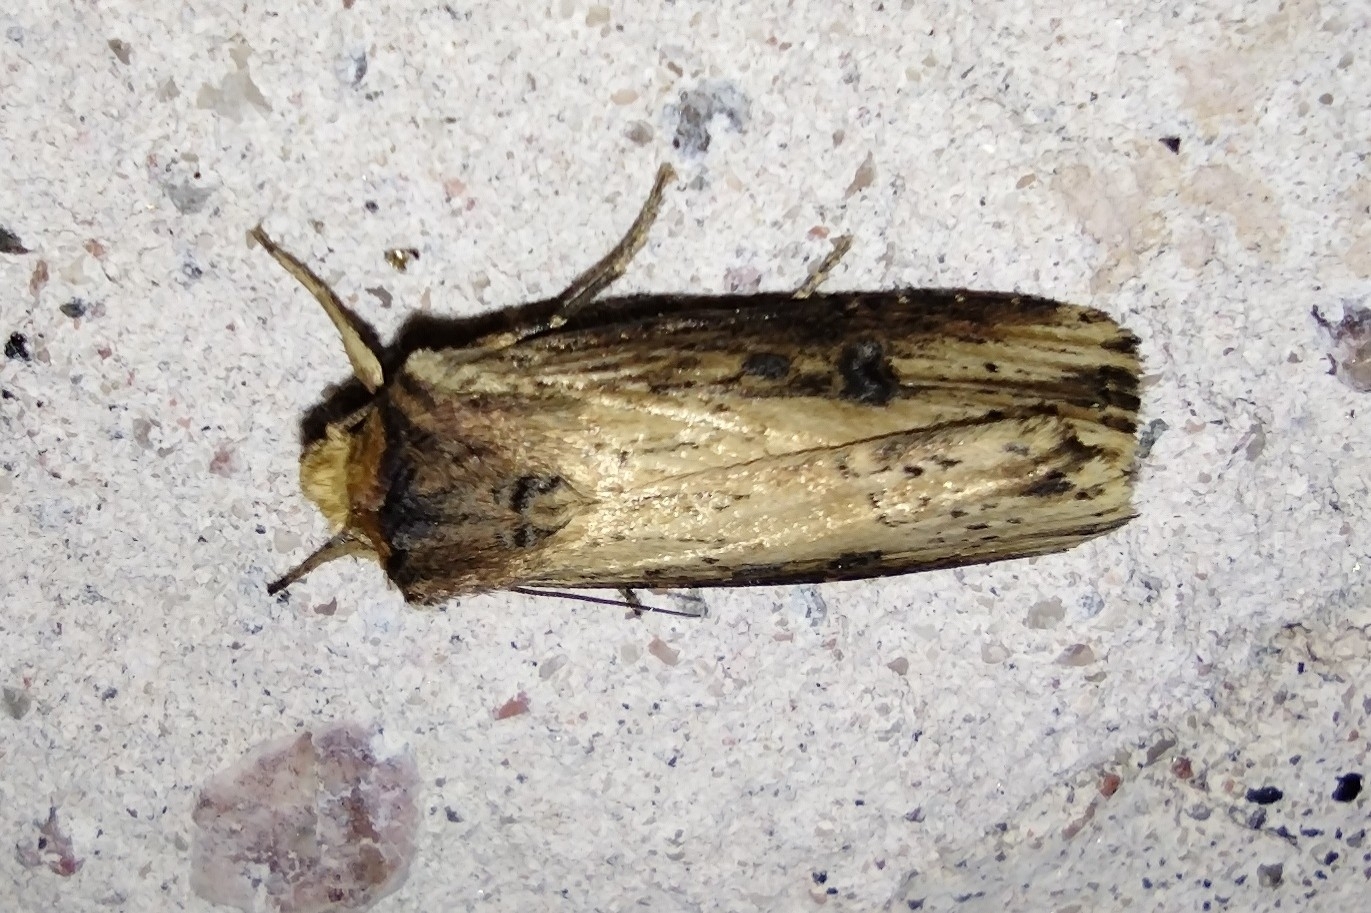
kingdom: Animalia
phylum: Arthropoda
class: Insecta
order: Lepidoptera
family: Noctuidae
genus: Axylia
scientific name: Axylia putris
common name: Flame
